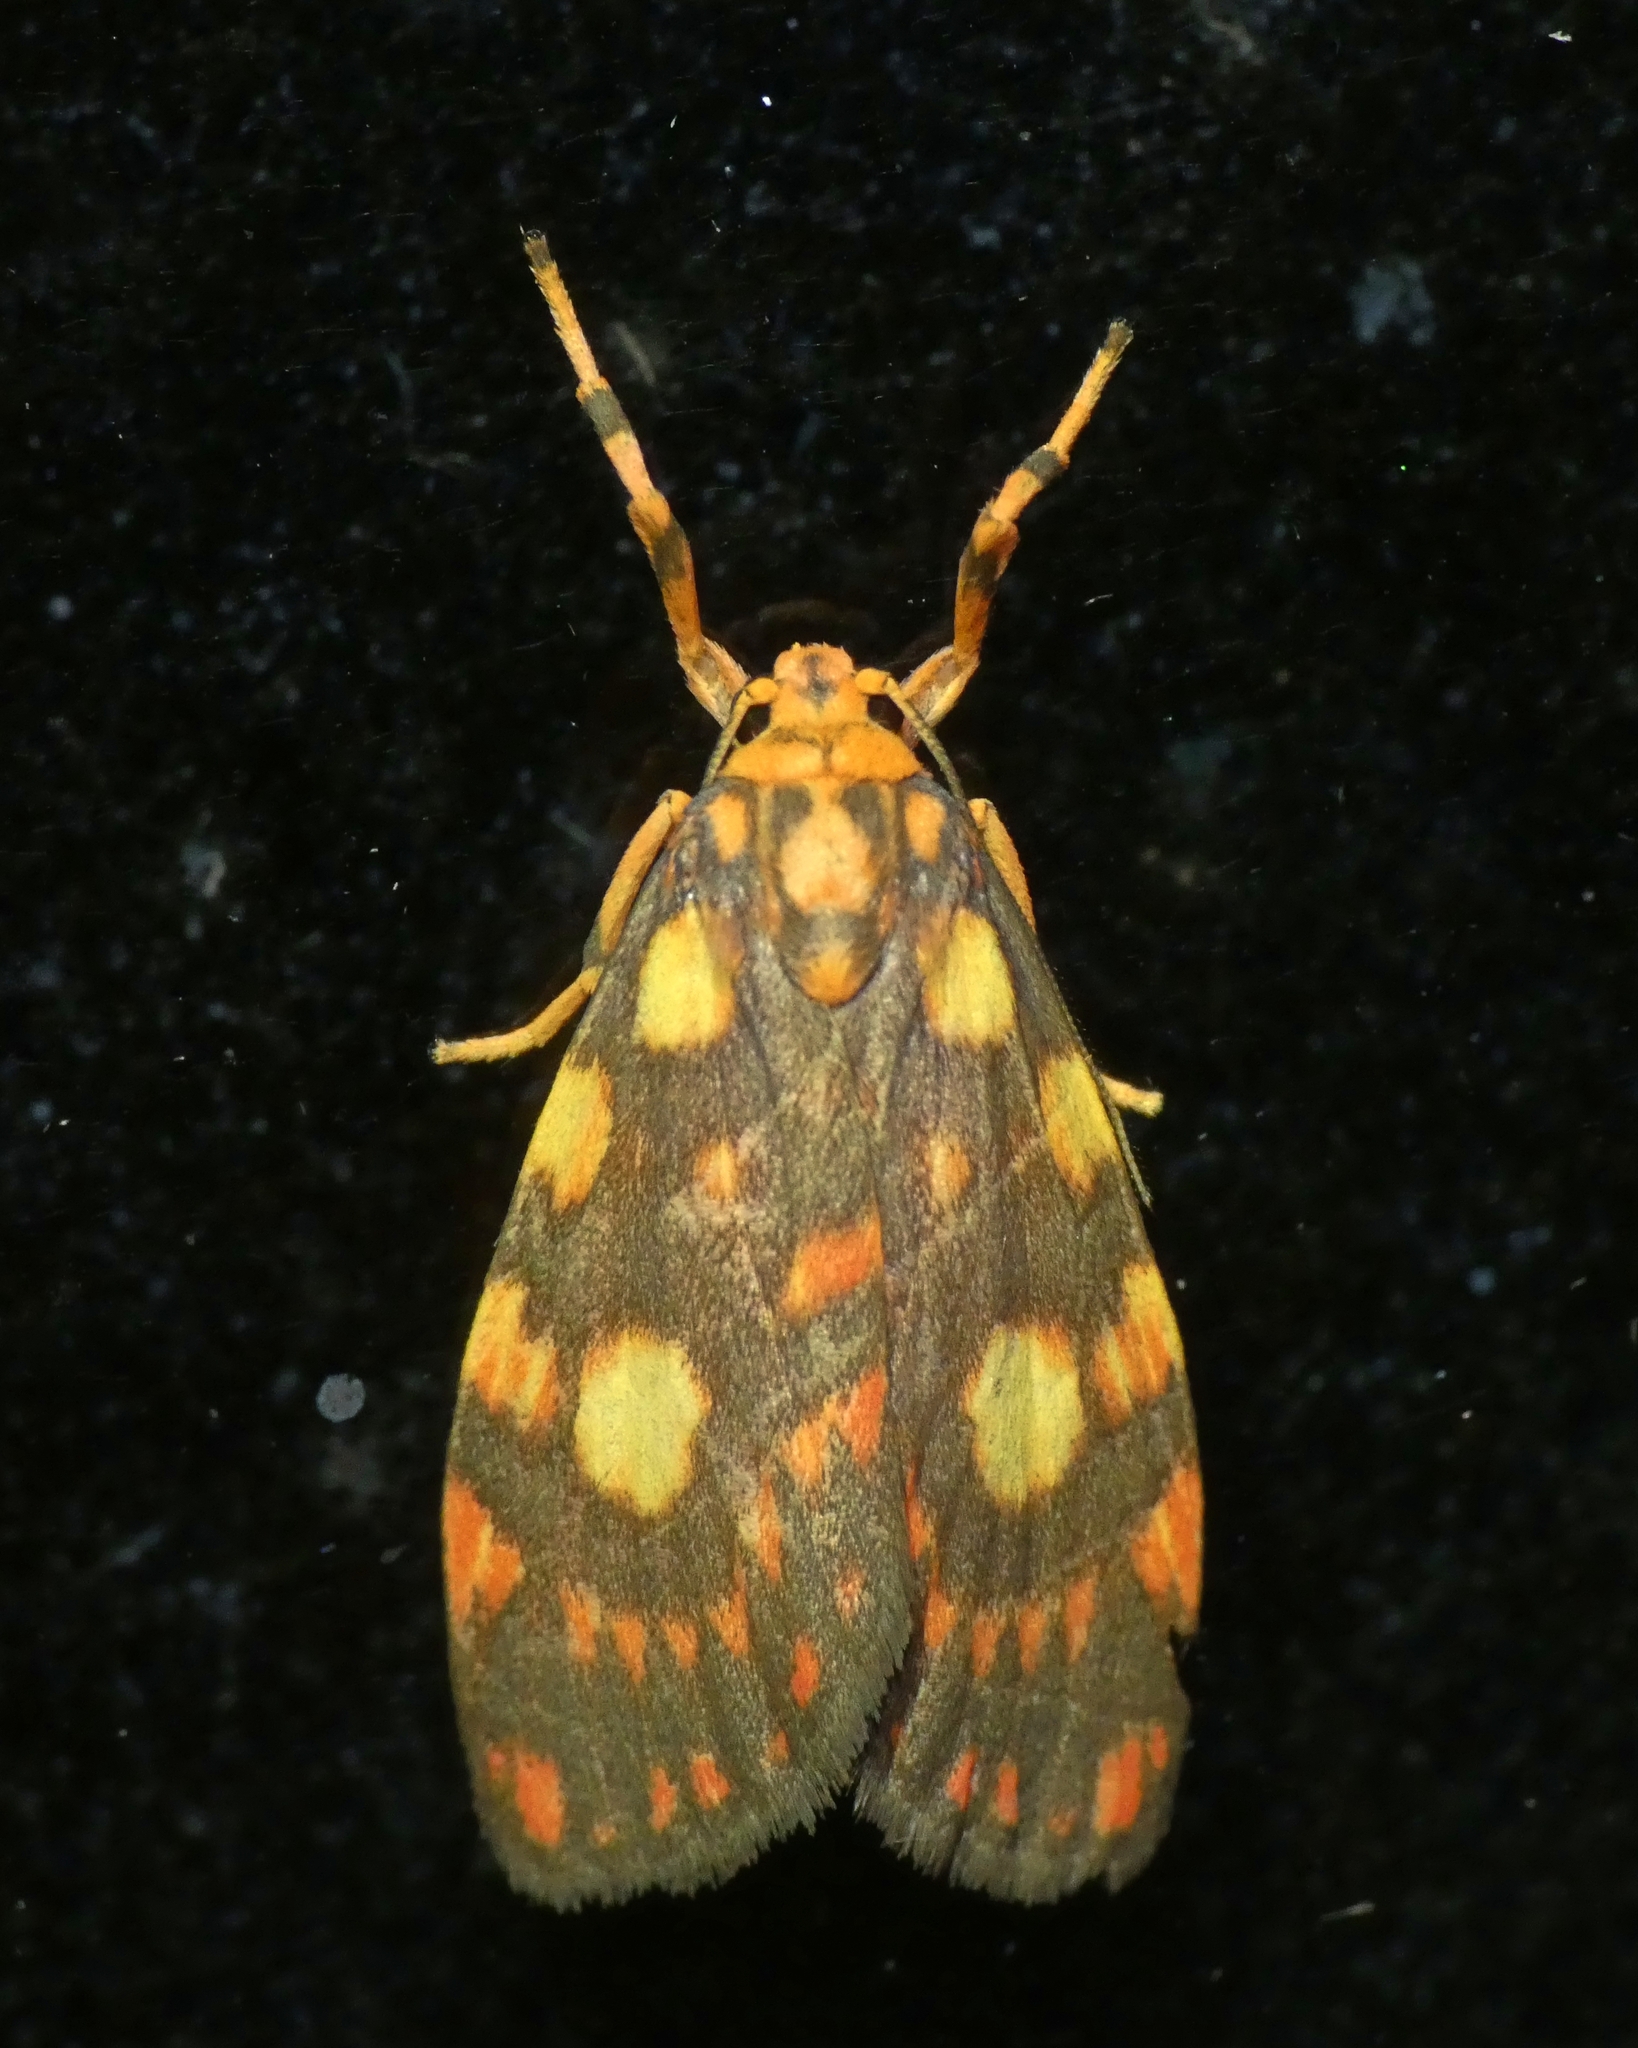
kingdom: Animalia
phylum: Arthropoda
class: Insecta
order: Lepidoptera
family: Erebidae
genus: Cyme
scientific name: Cyme reticulata
